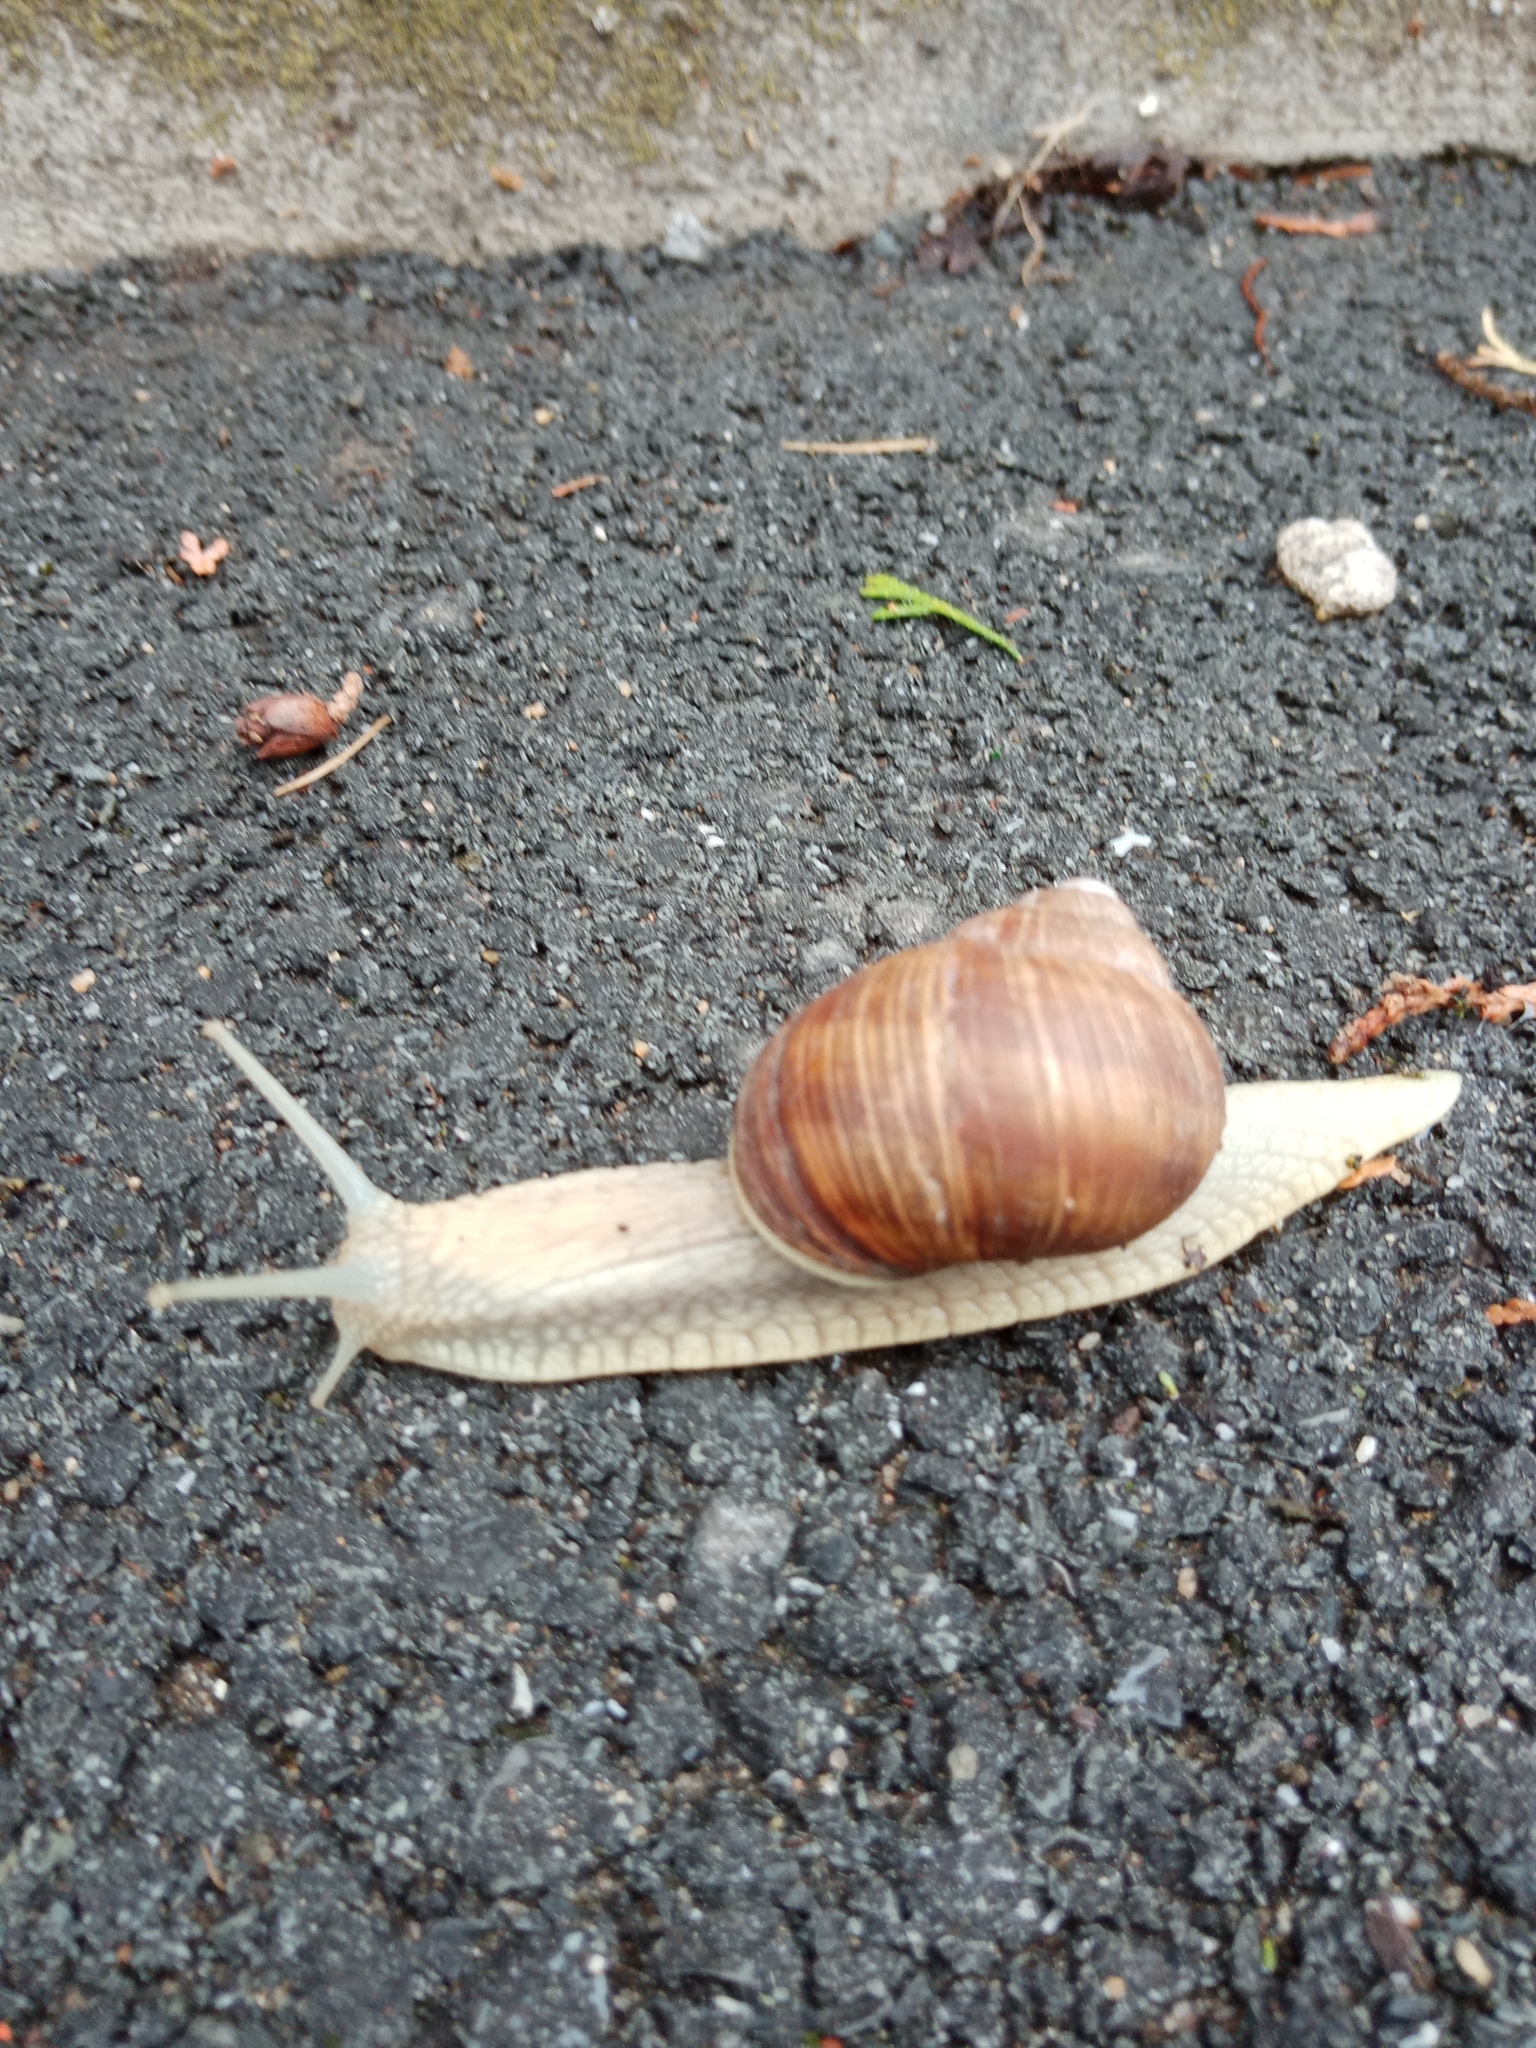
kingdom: Animalia
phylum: Mollusca
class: Gastropoda
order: Stylommatophora
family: Helicidae
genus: Helix
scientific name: Helix pomatia
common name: Roman snail
